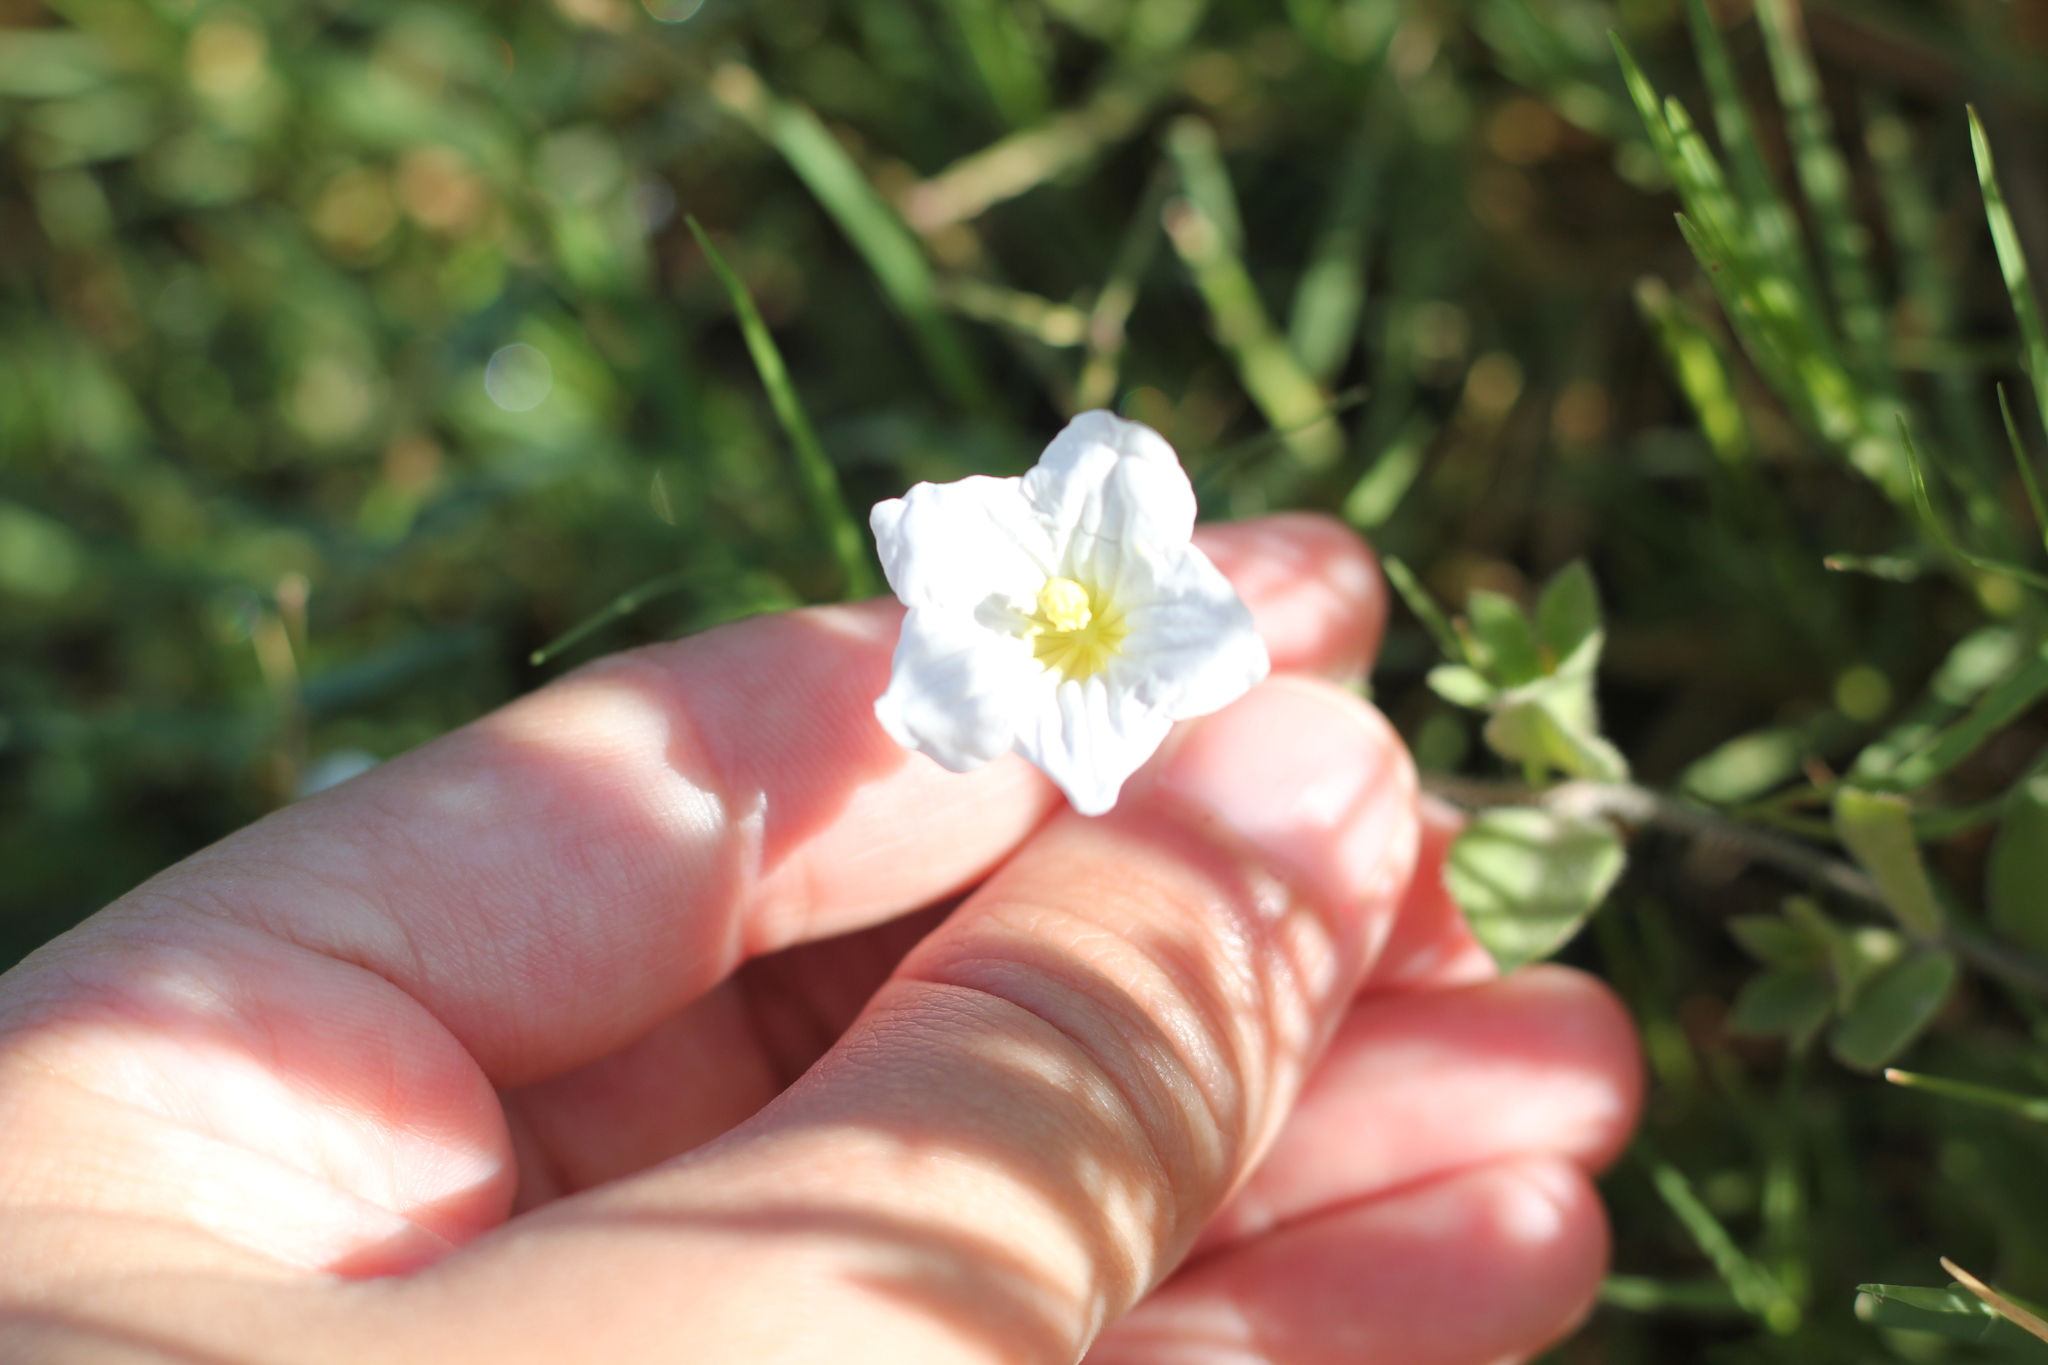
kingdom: Plantae
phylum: Tracheophyta
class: Magnoliopsida
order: Solanales
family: Solanaceae
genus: Nierembergia
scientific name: Nierembergia calycina
